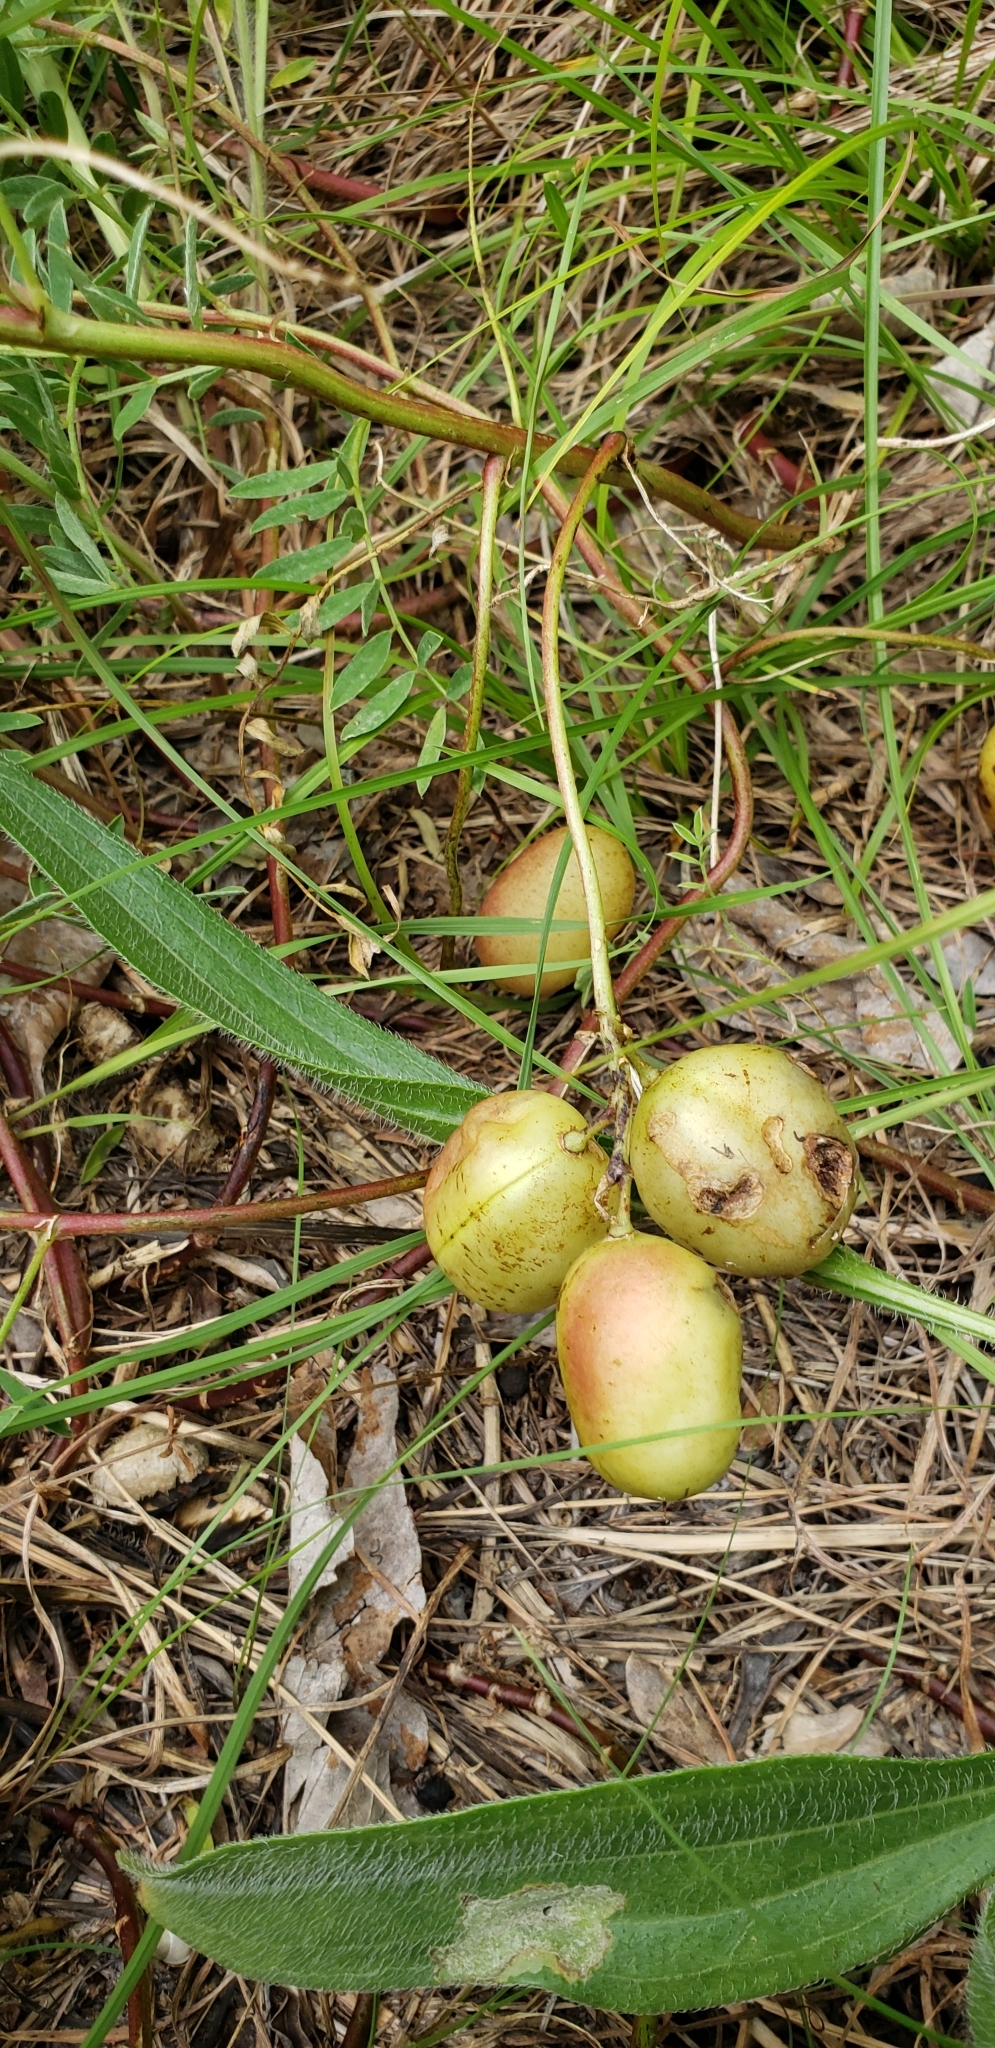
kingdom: Plantae
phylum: Tracheophyta
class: Magnoliopsida
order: Fabales
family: Fabaceae
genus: Astragalus
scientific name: Astragalus crassicarpus
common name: Ground-plum milk-vetch
